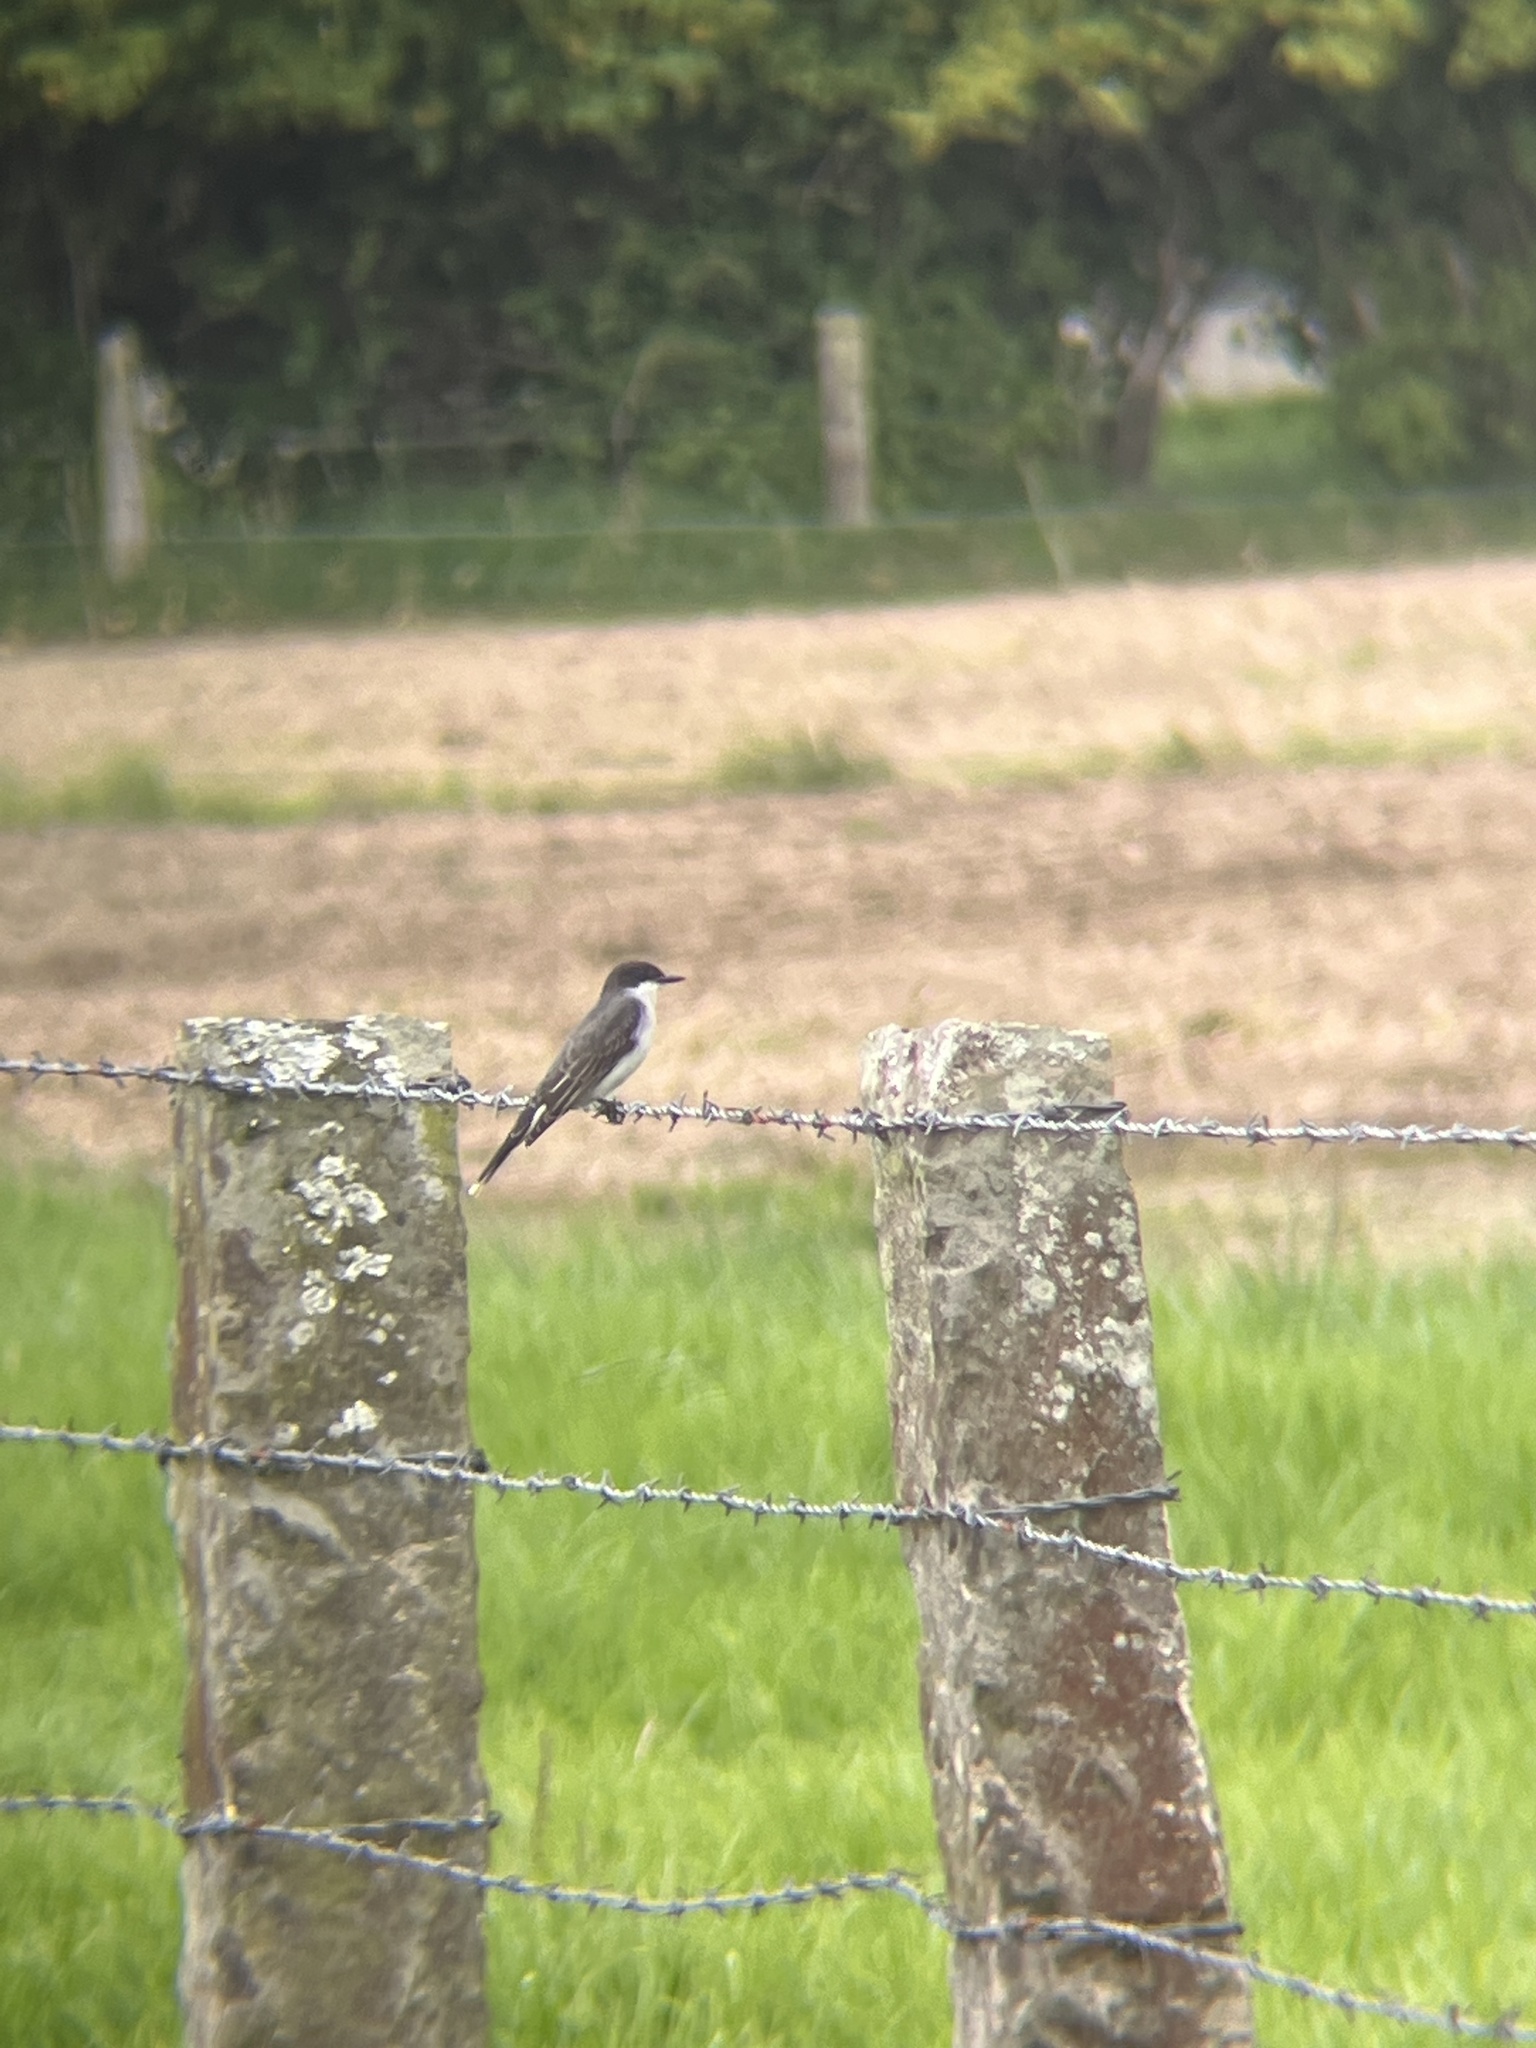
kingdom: Animalia
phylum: Chordata
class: Aves
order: Passeriformes
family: Tyrannidae
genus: Tyrannus
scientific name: Tyrannus tyrannus
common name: Eastern kingbird
